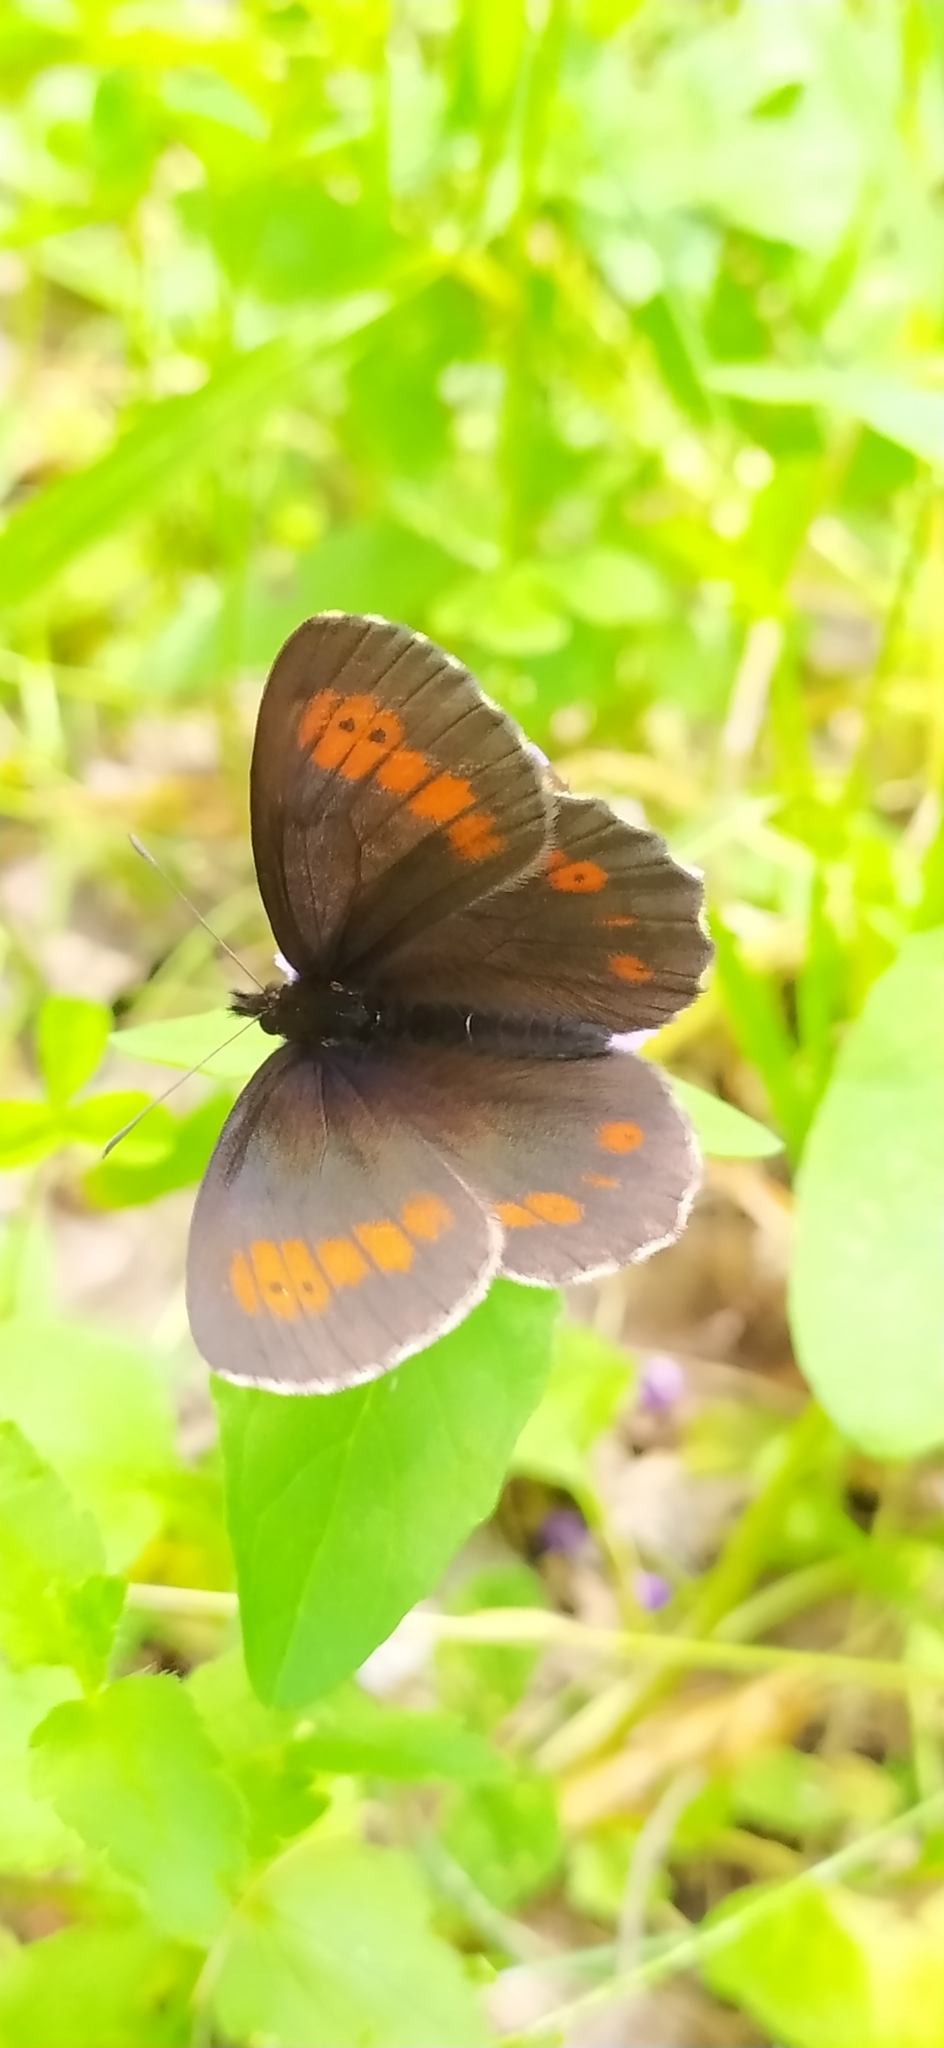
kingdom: Animalia
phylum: Arthropoda
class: Insecta
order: Lepidoptera
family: Nymphalidae
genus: Erebia
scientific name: Erebia euryale
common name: Large ringlet
